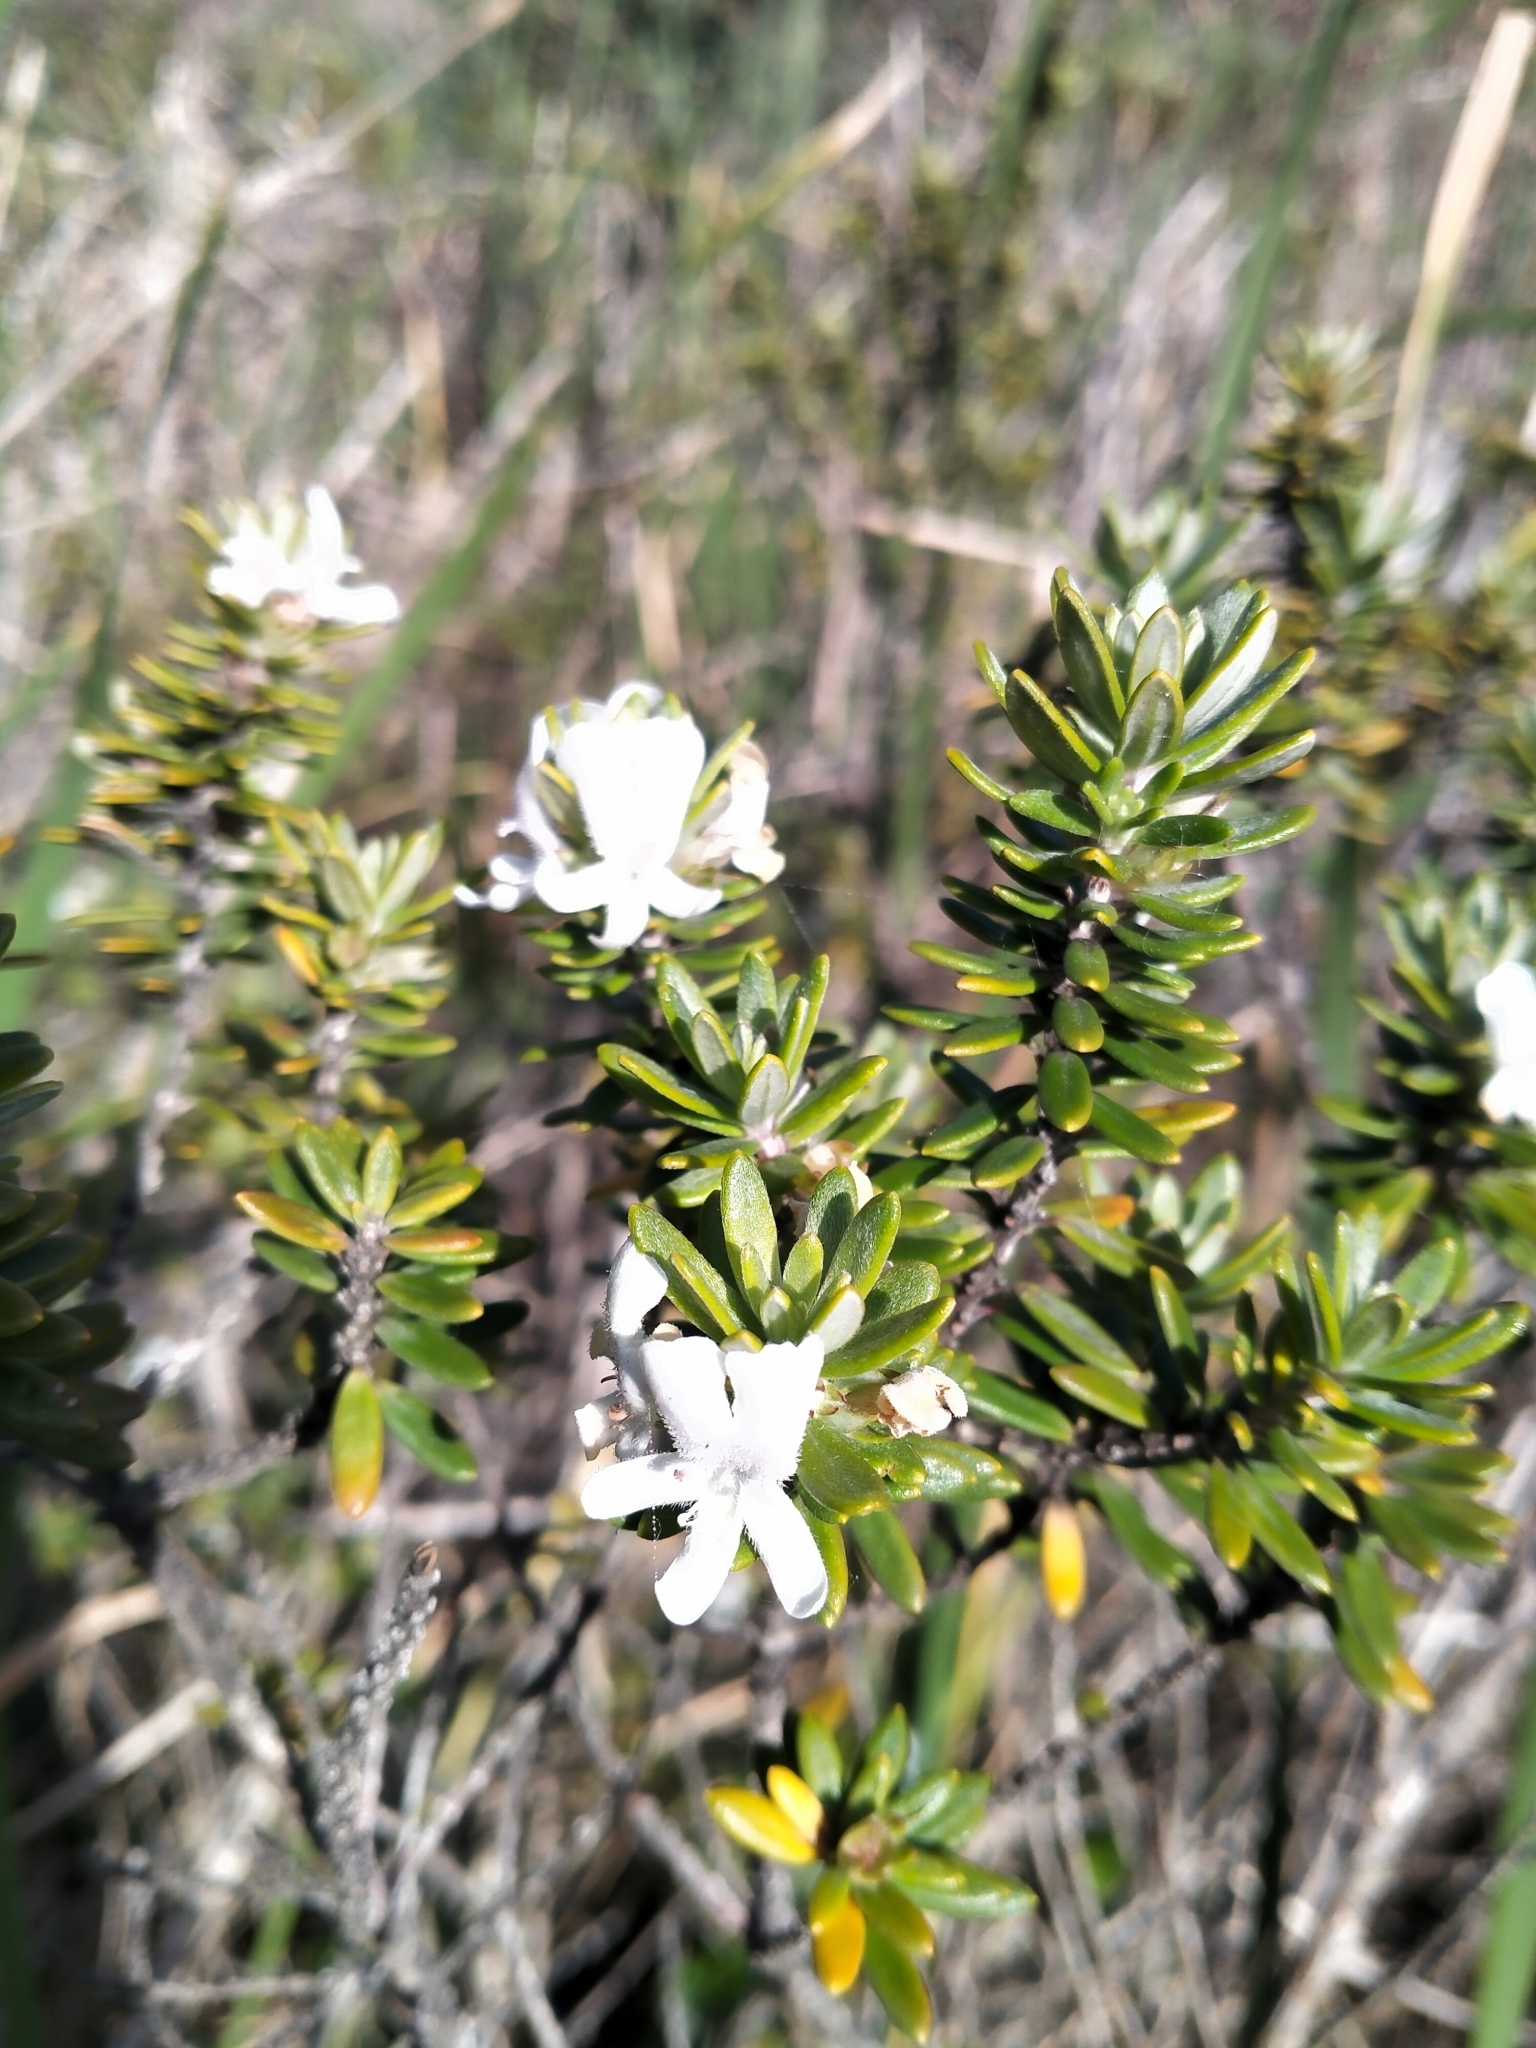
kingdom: Plantae
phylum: Tracheophyta
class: Magnoliopsida
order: Lamiales
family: Lamiaceae
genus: Westringia
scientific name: Westringia fruticosa
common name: Coastal-rosemary
